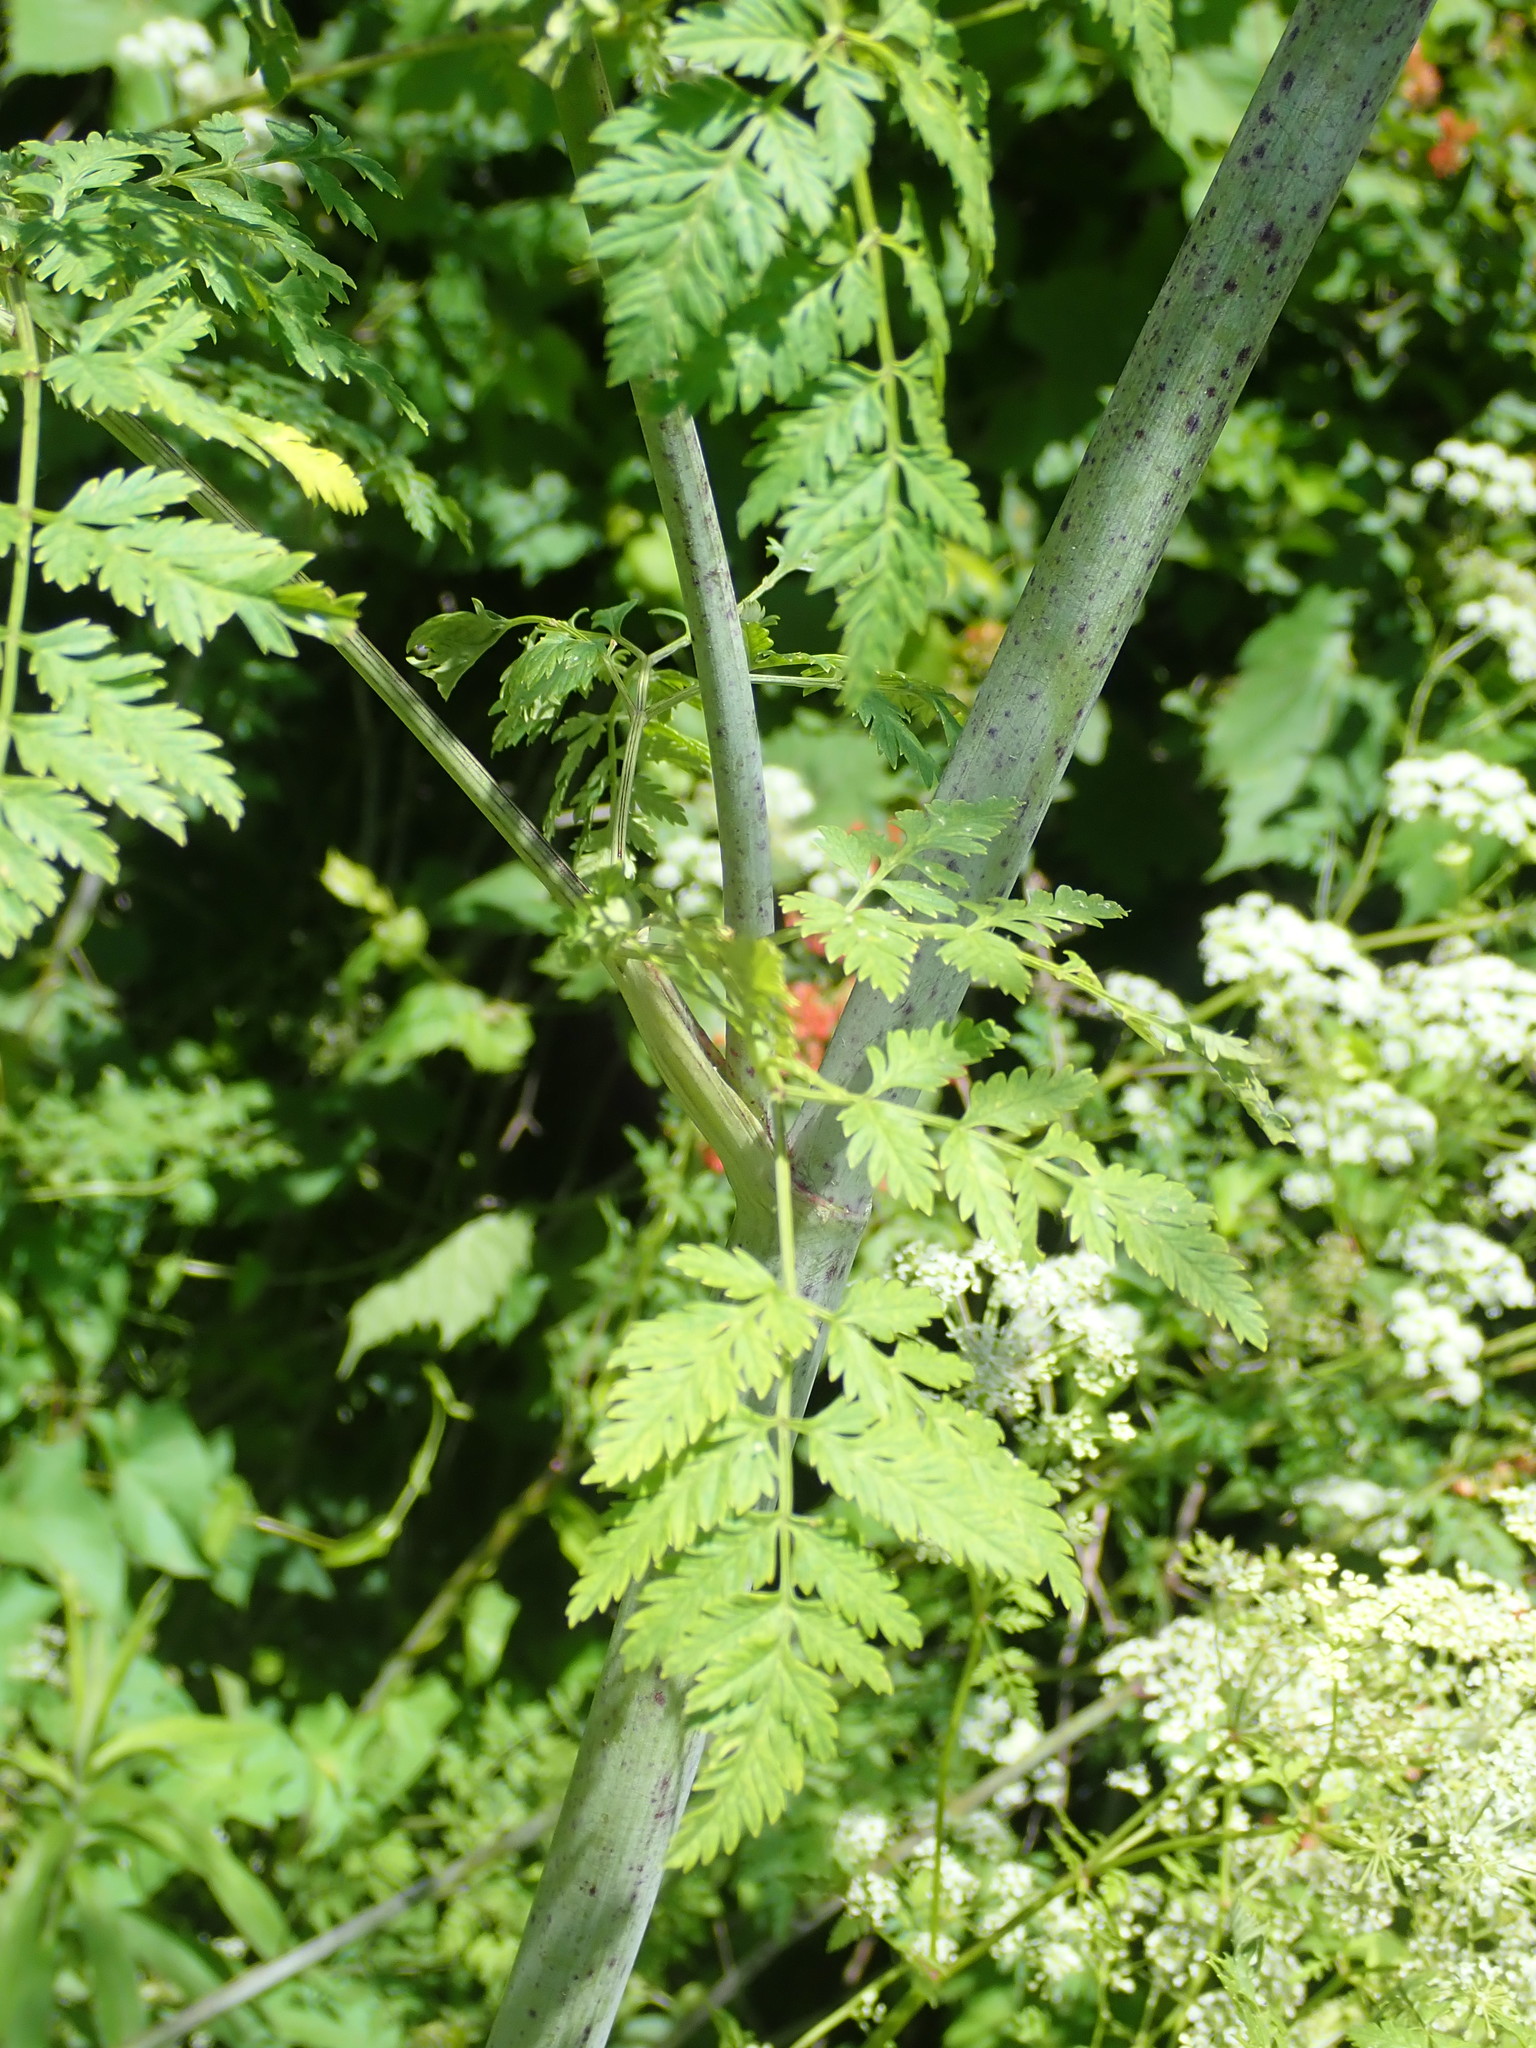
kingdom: Plantae
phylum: Tracheophyta
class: Magnoliopsida
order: Apiales
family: Apiaceae
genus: Conium
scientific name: Conium maculatum
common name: Hemlock
